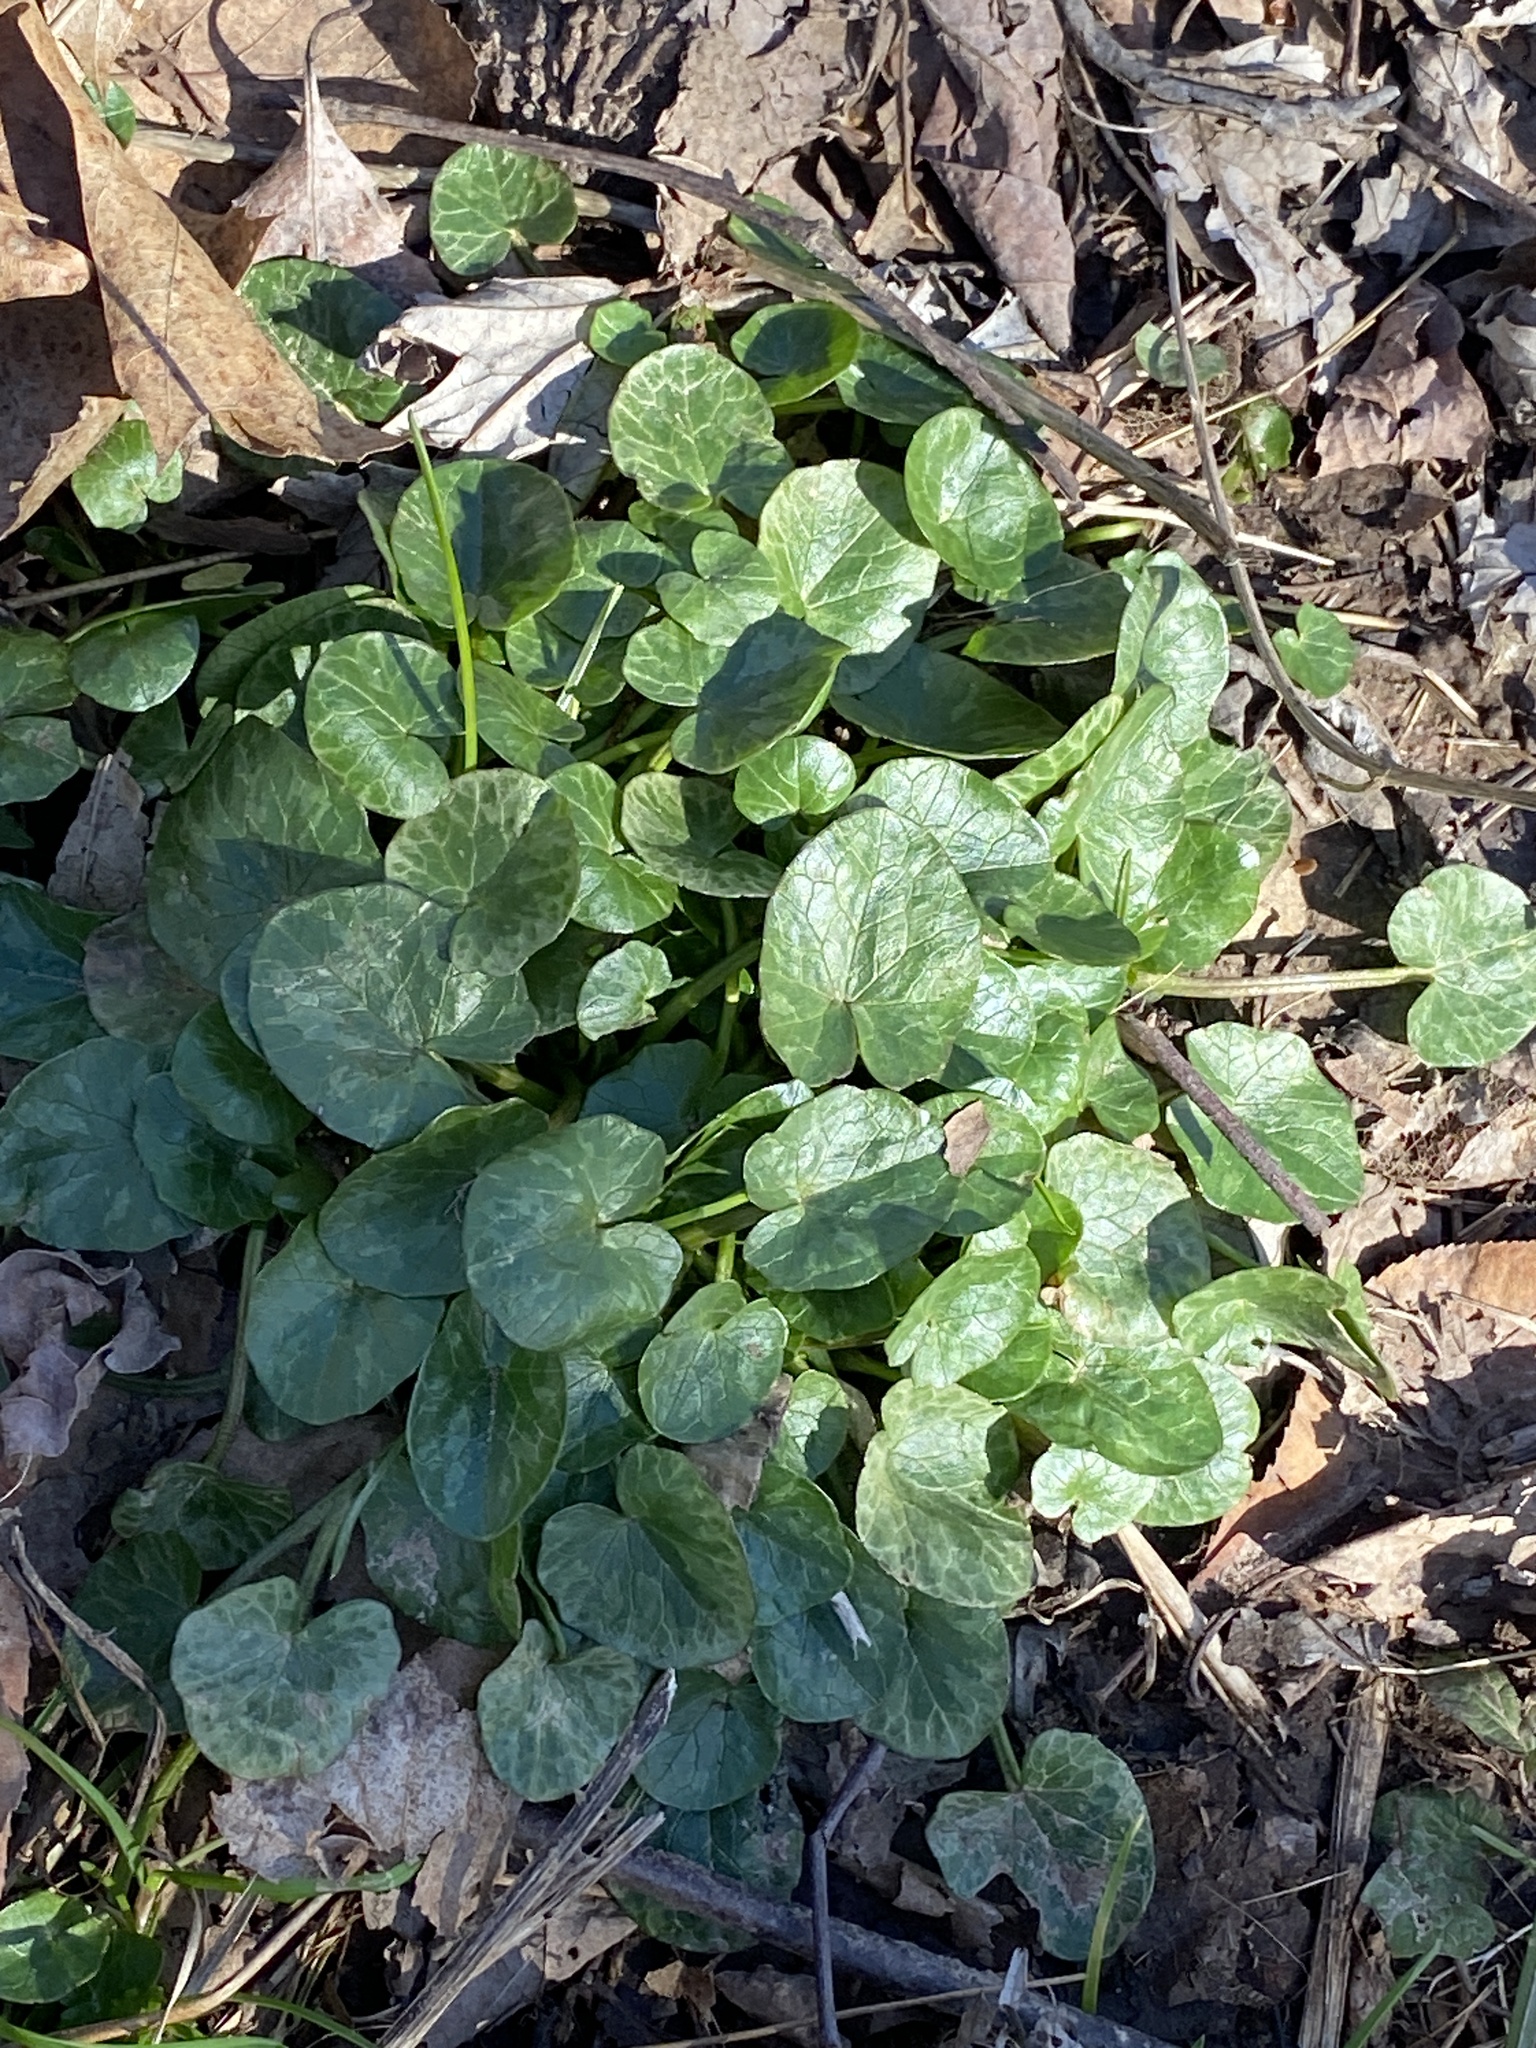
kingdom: Plantae
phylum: Tracheophyta
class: Magnoliopsida
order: Ranunculales
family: Ranunculaceae
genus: Ficaria
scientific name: Ficaria verna
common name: Lesser celandine
